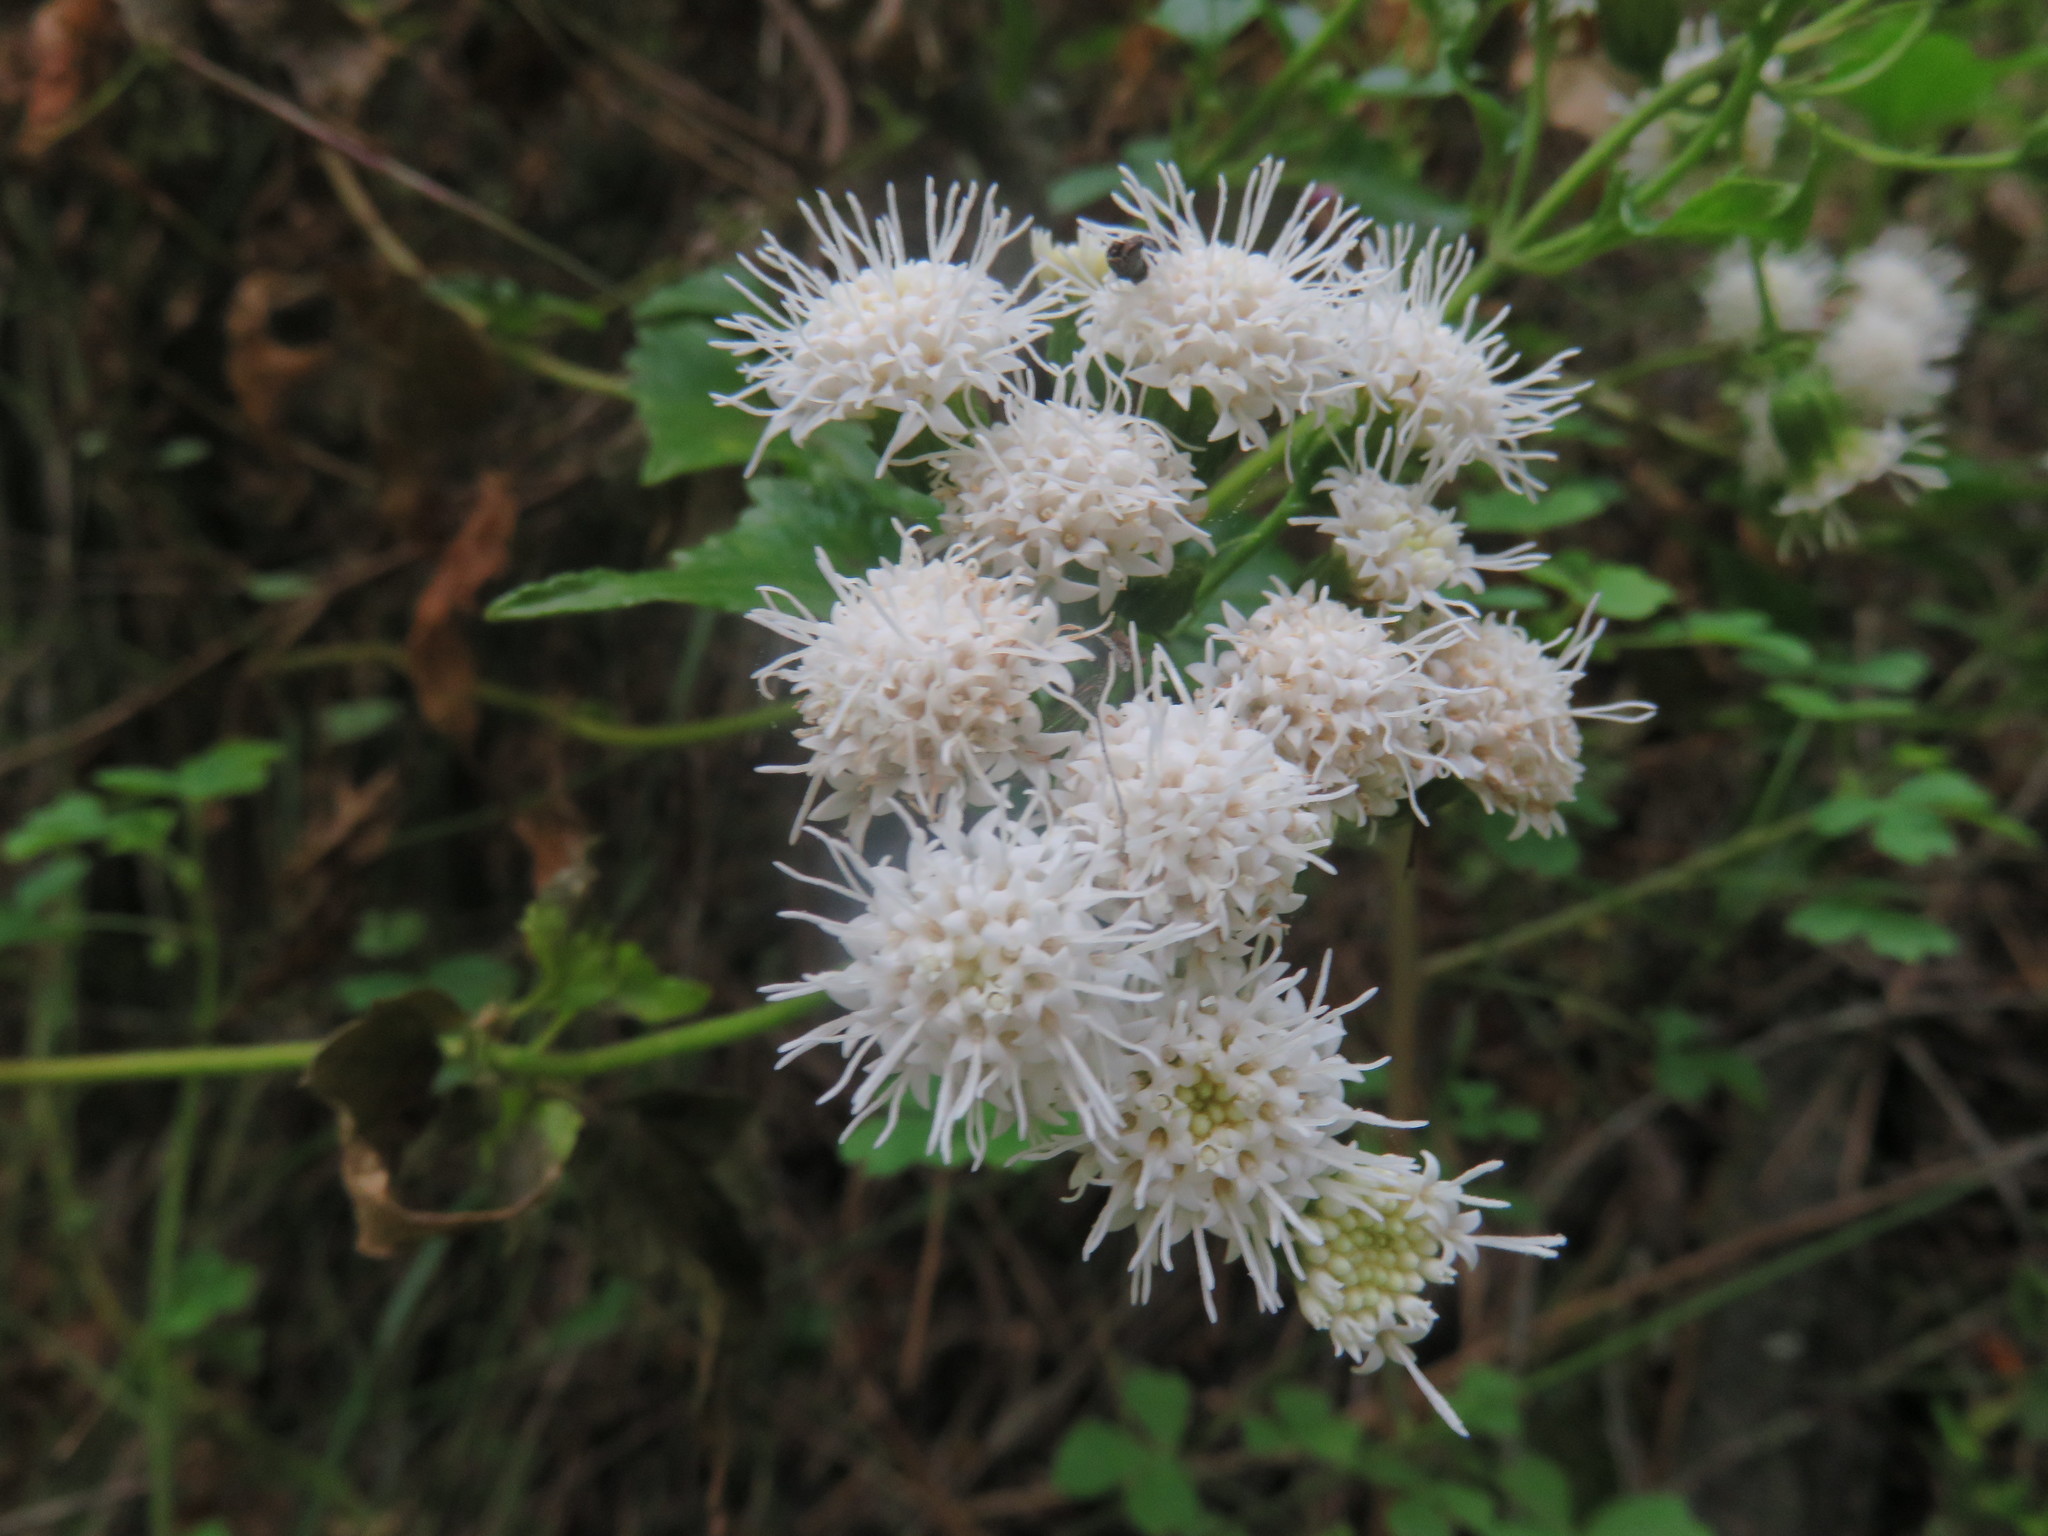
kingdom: Plantae
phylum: Tracheophyta
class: Magnoliopsida
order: Asterales
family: Asteraceae
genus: Ageratina
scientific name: Ageratina glechonophylla
